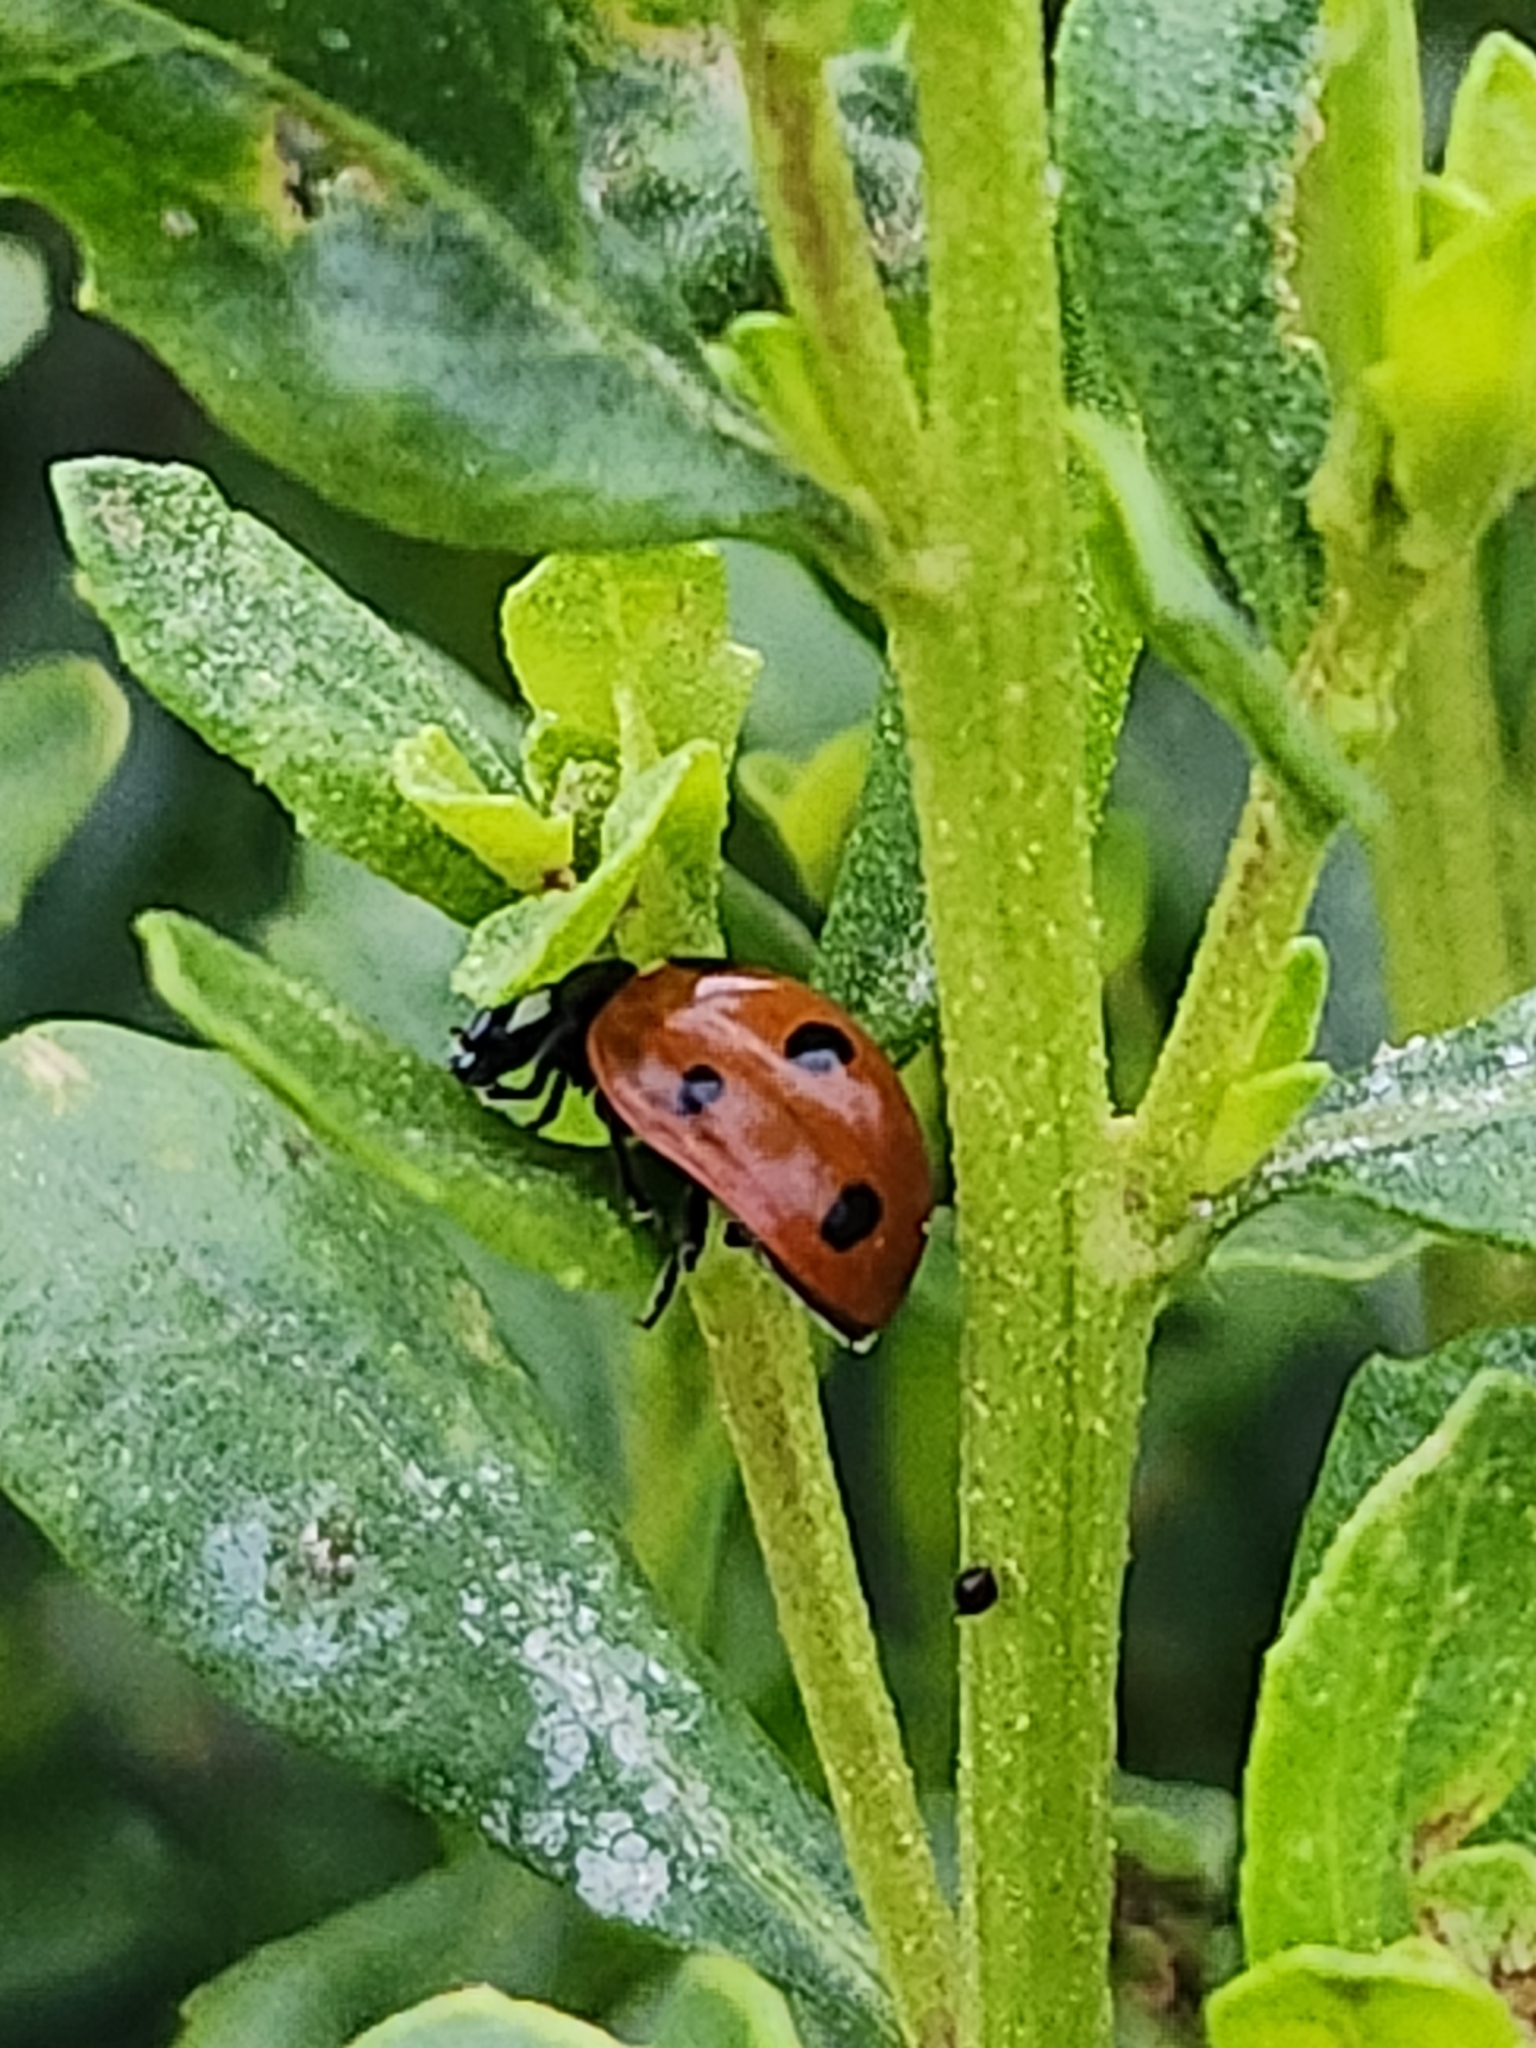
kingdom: Animalia
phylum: Arthropoda
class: Insecta
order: Coleoptera
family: Coccinellidae
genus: Coccinella
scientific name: Coccinella septempunctata
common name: Sevenspotted lady beetle
